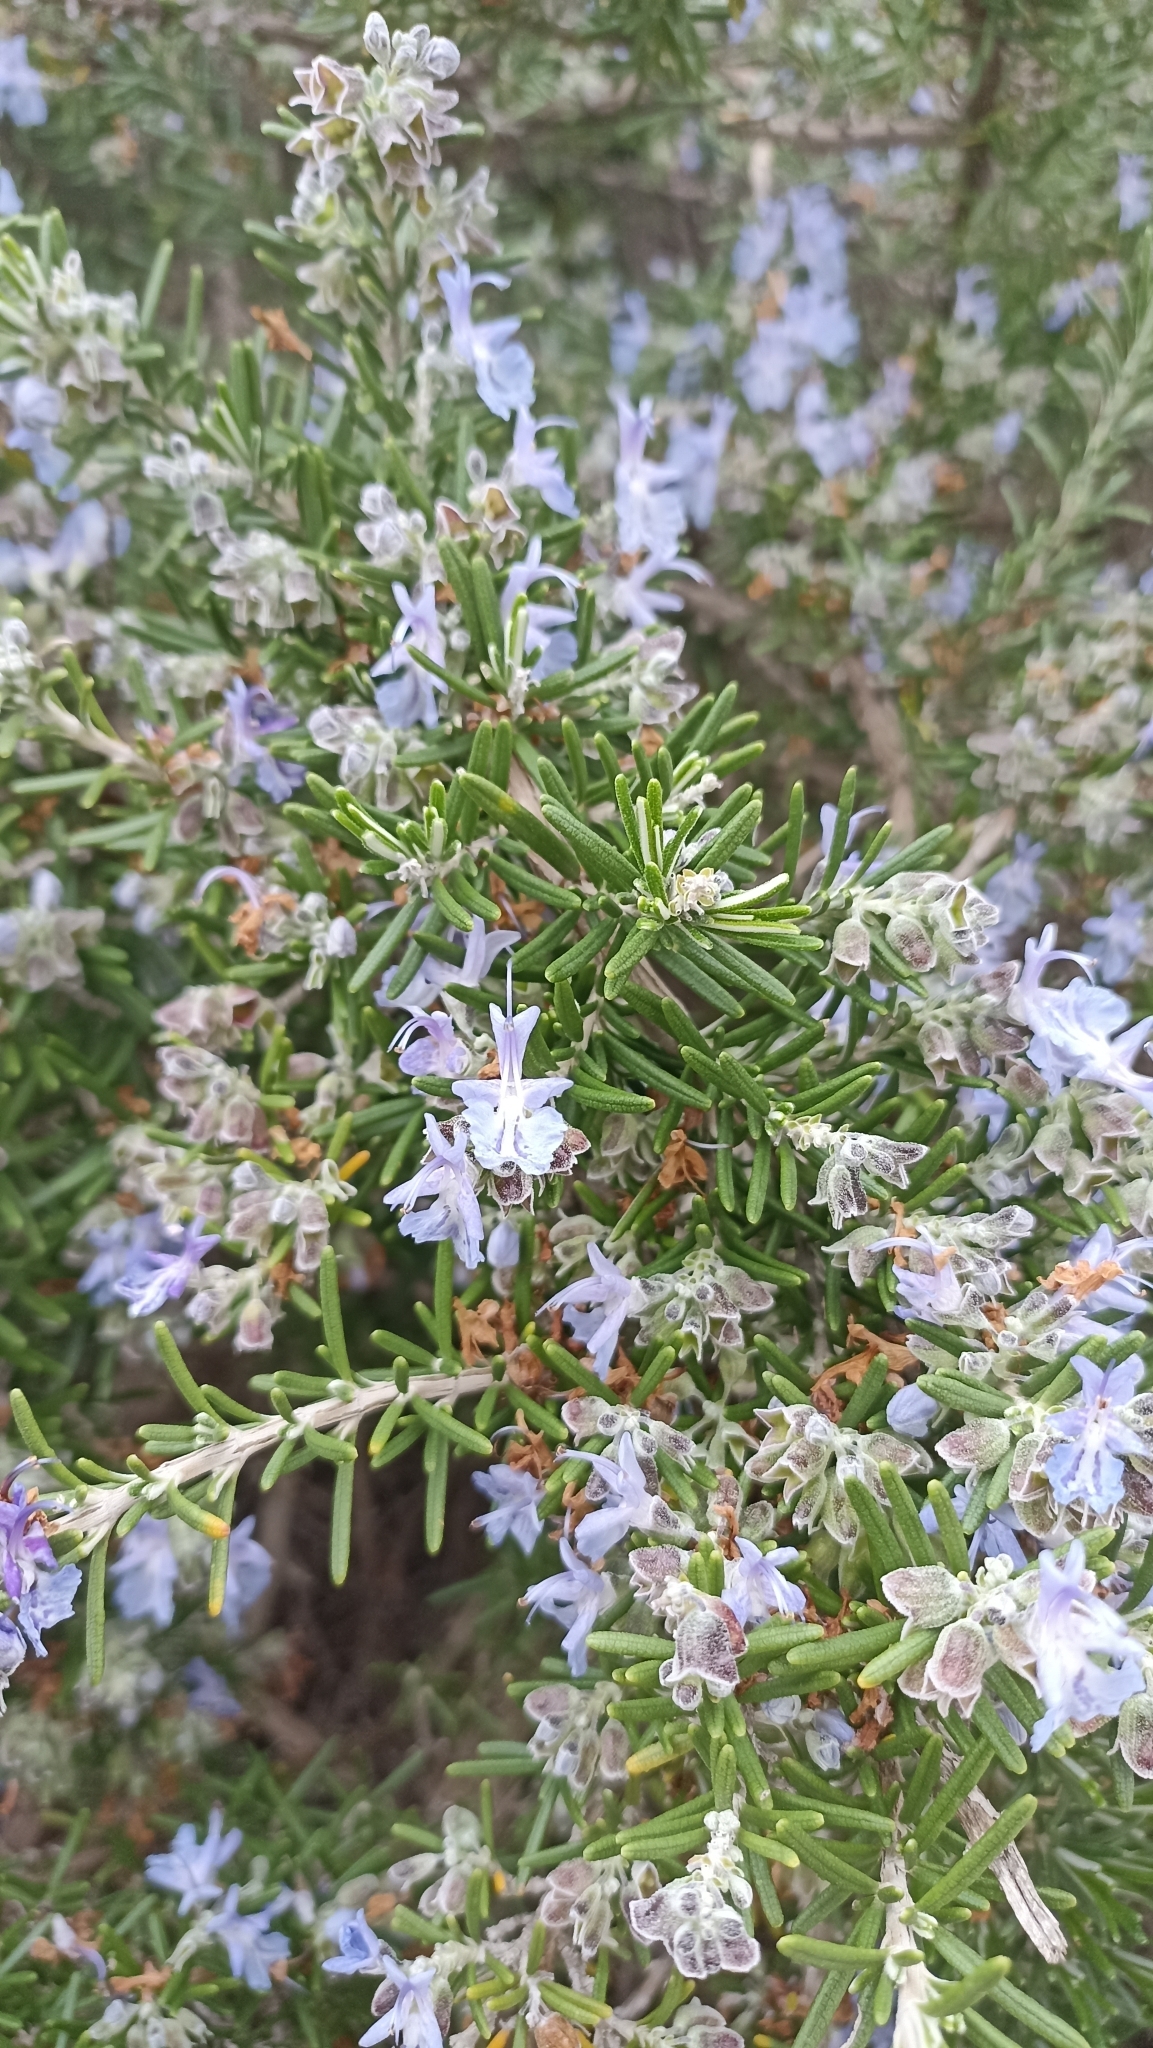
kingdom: Plantae
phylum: Tracheophyta
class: Magnoliopsida
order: Lamiales
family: Lamiaceae
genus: Salvia
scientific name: Salvia rosmarinus
